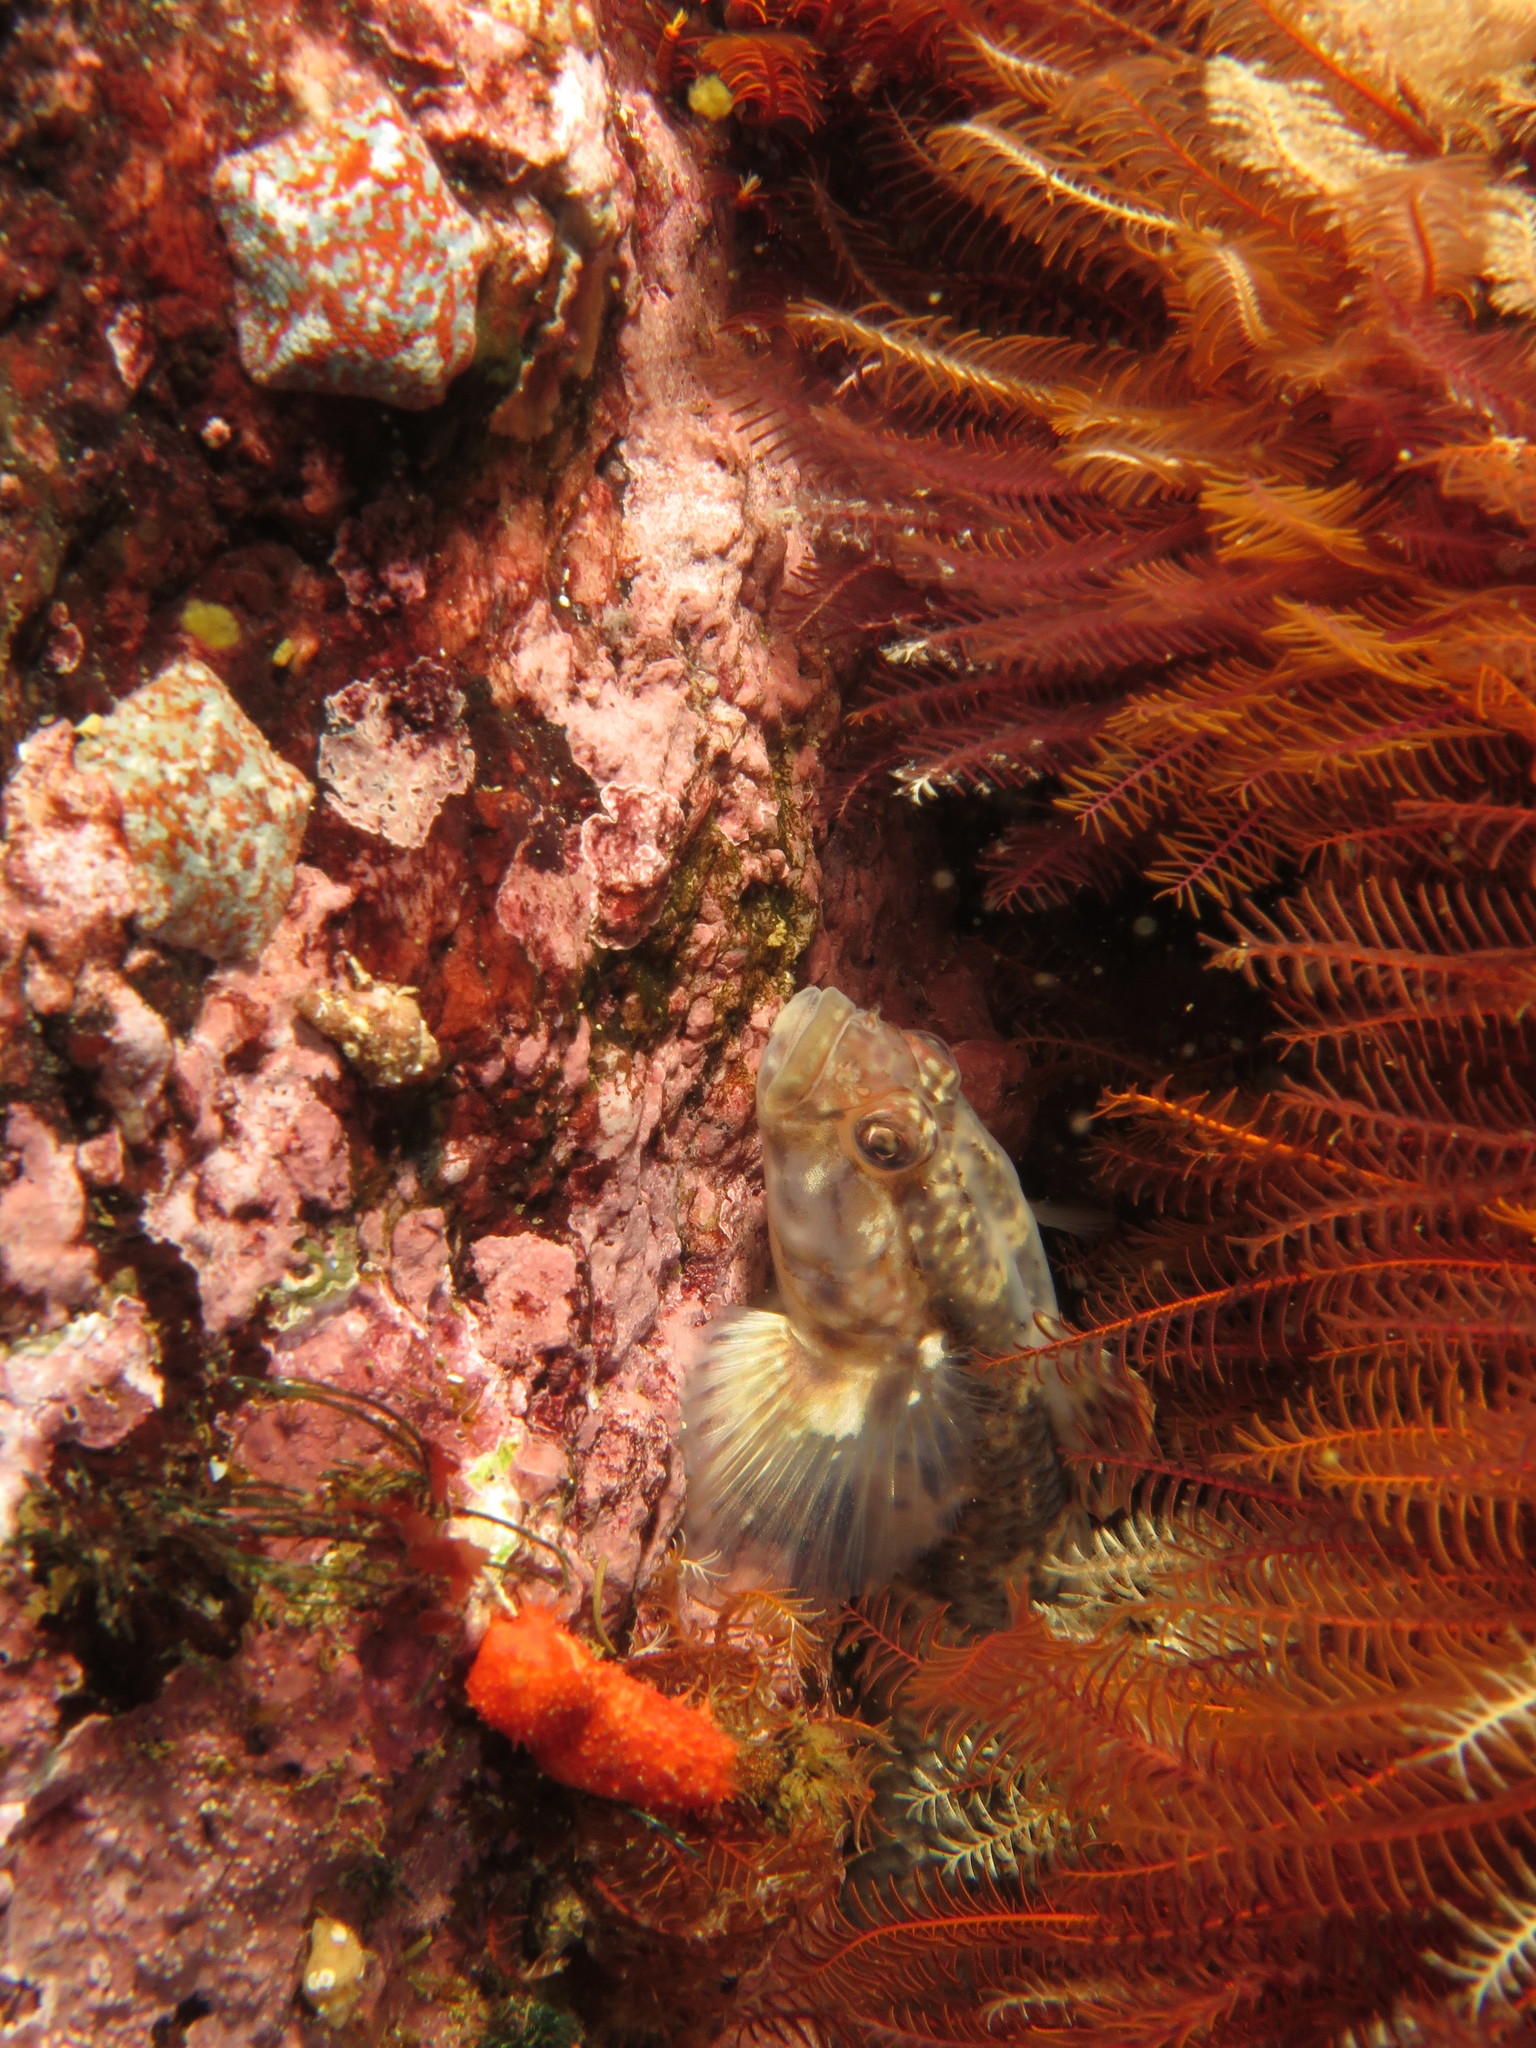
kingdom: Animalia
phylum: Chordata
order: Perciformes
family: Gobiidae
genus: Caffrogobius
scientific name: Caffrogobius saldanha
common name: Commafin goby
